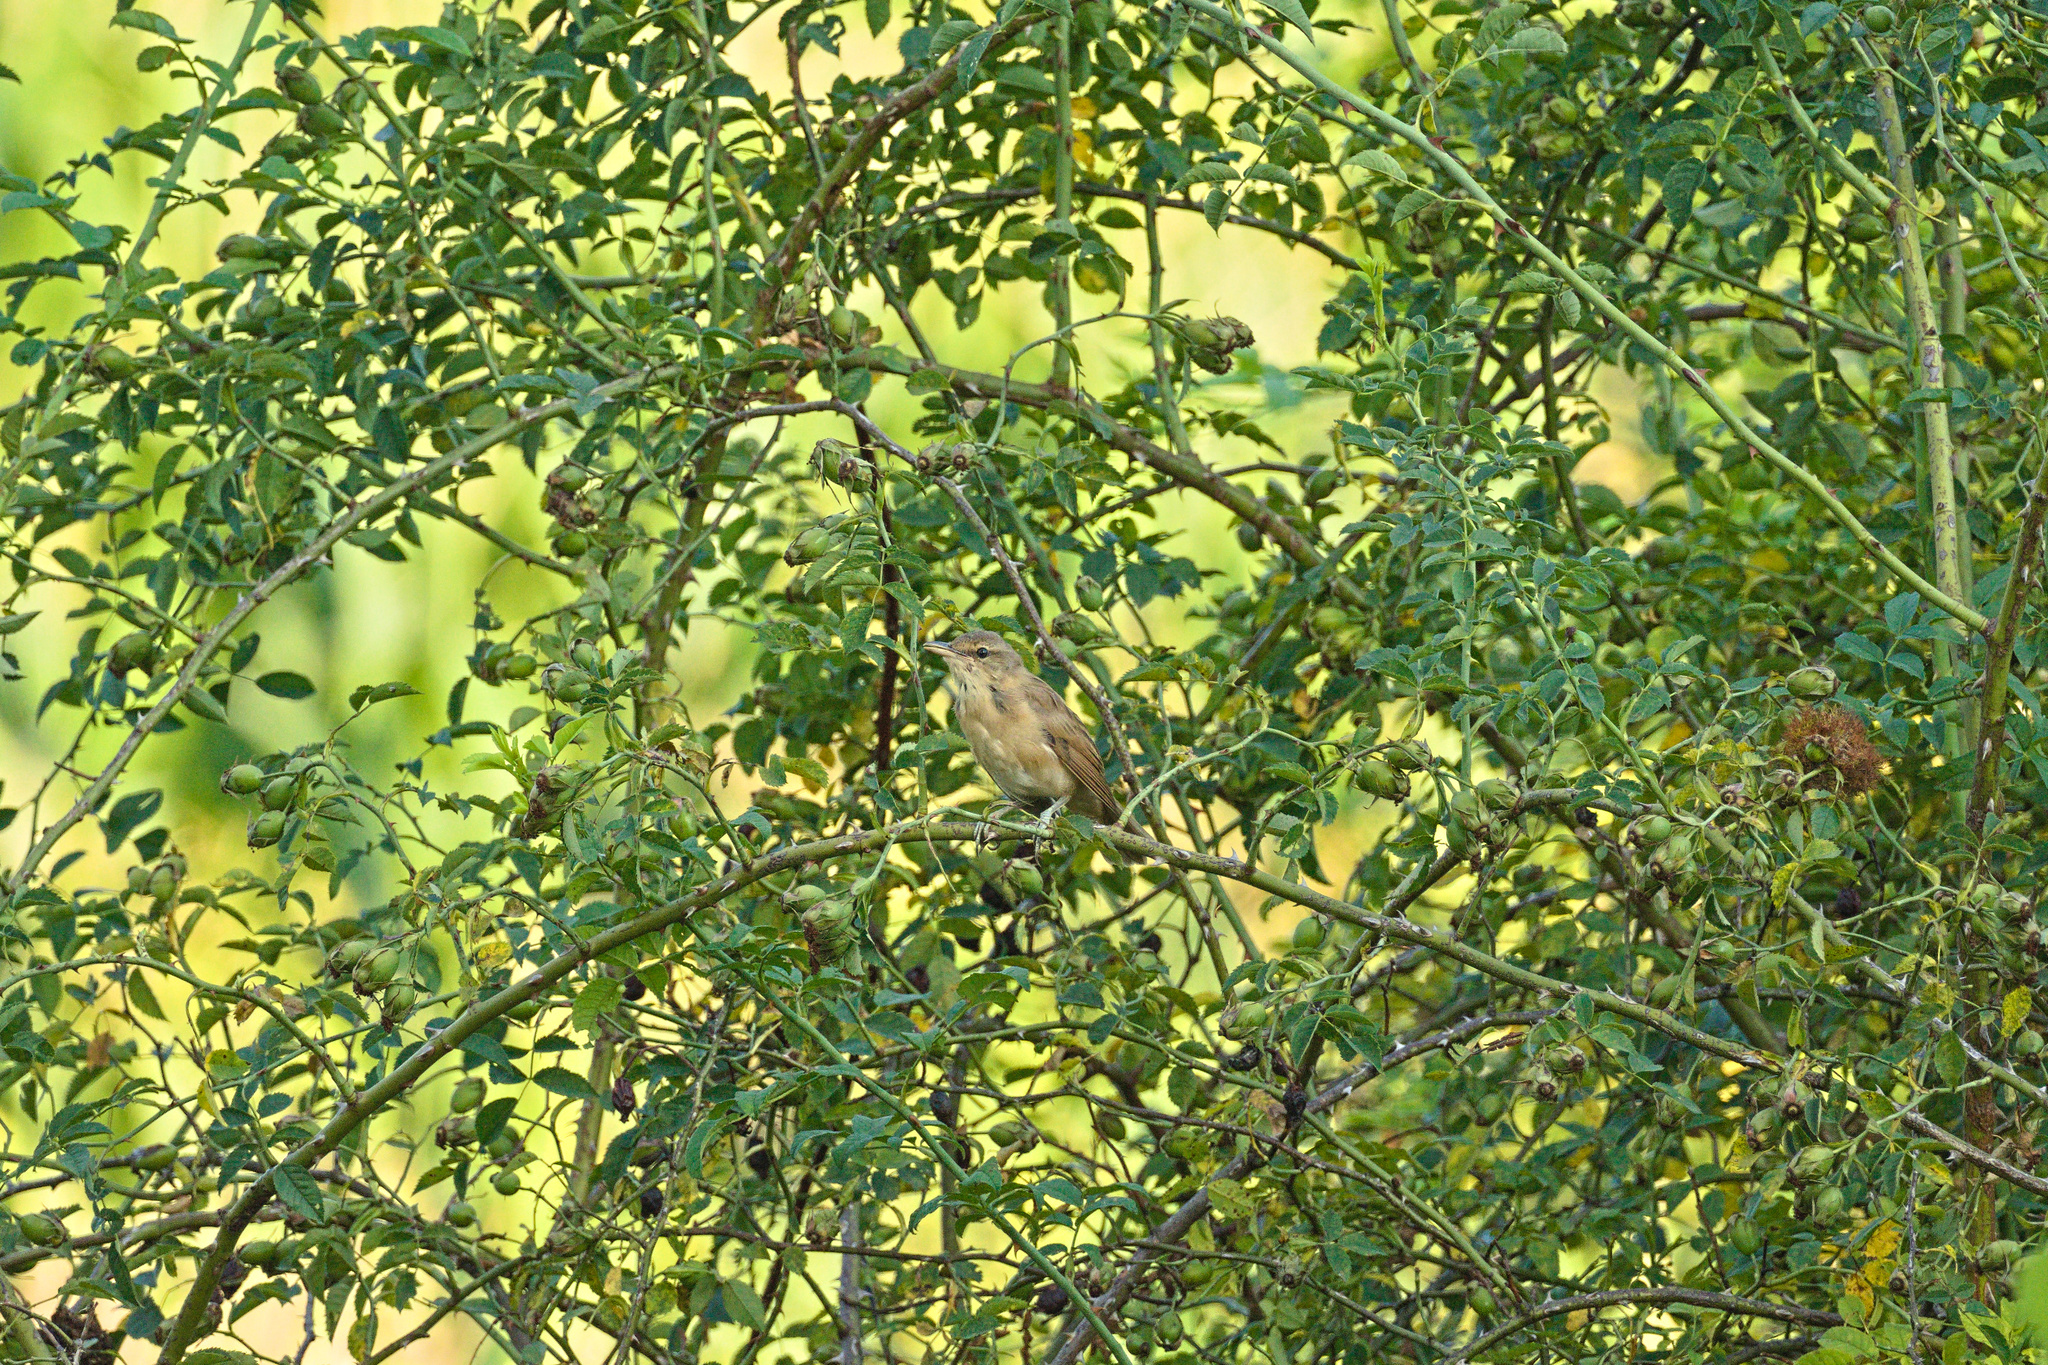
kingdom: Animalia
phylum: Chordata
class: Aves
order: Passeriformes
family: Acrocephalidae
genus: Acrocephalus
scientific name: Acrocephalus arundinaceus
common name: Great reed warbler
